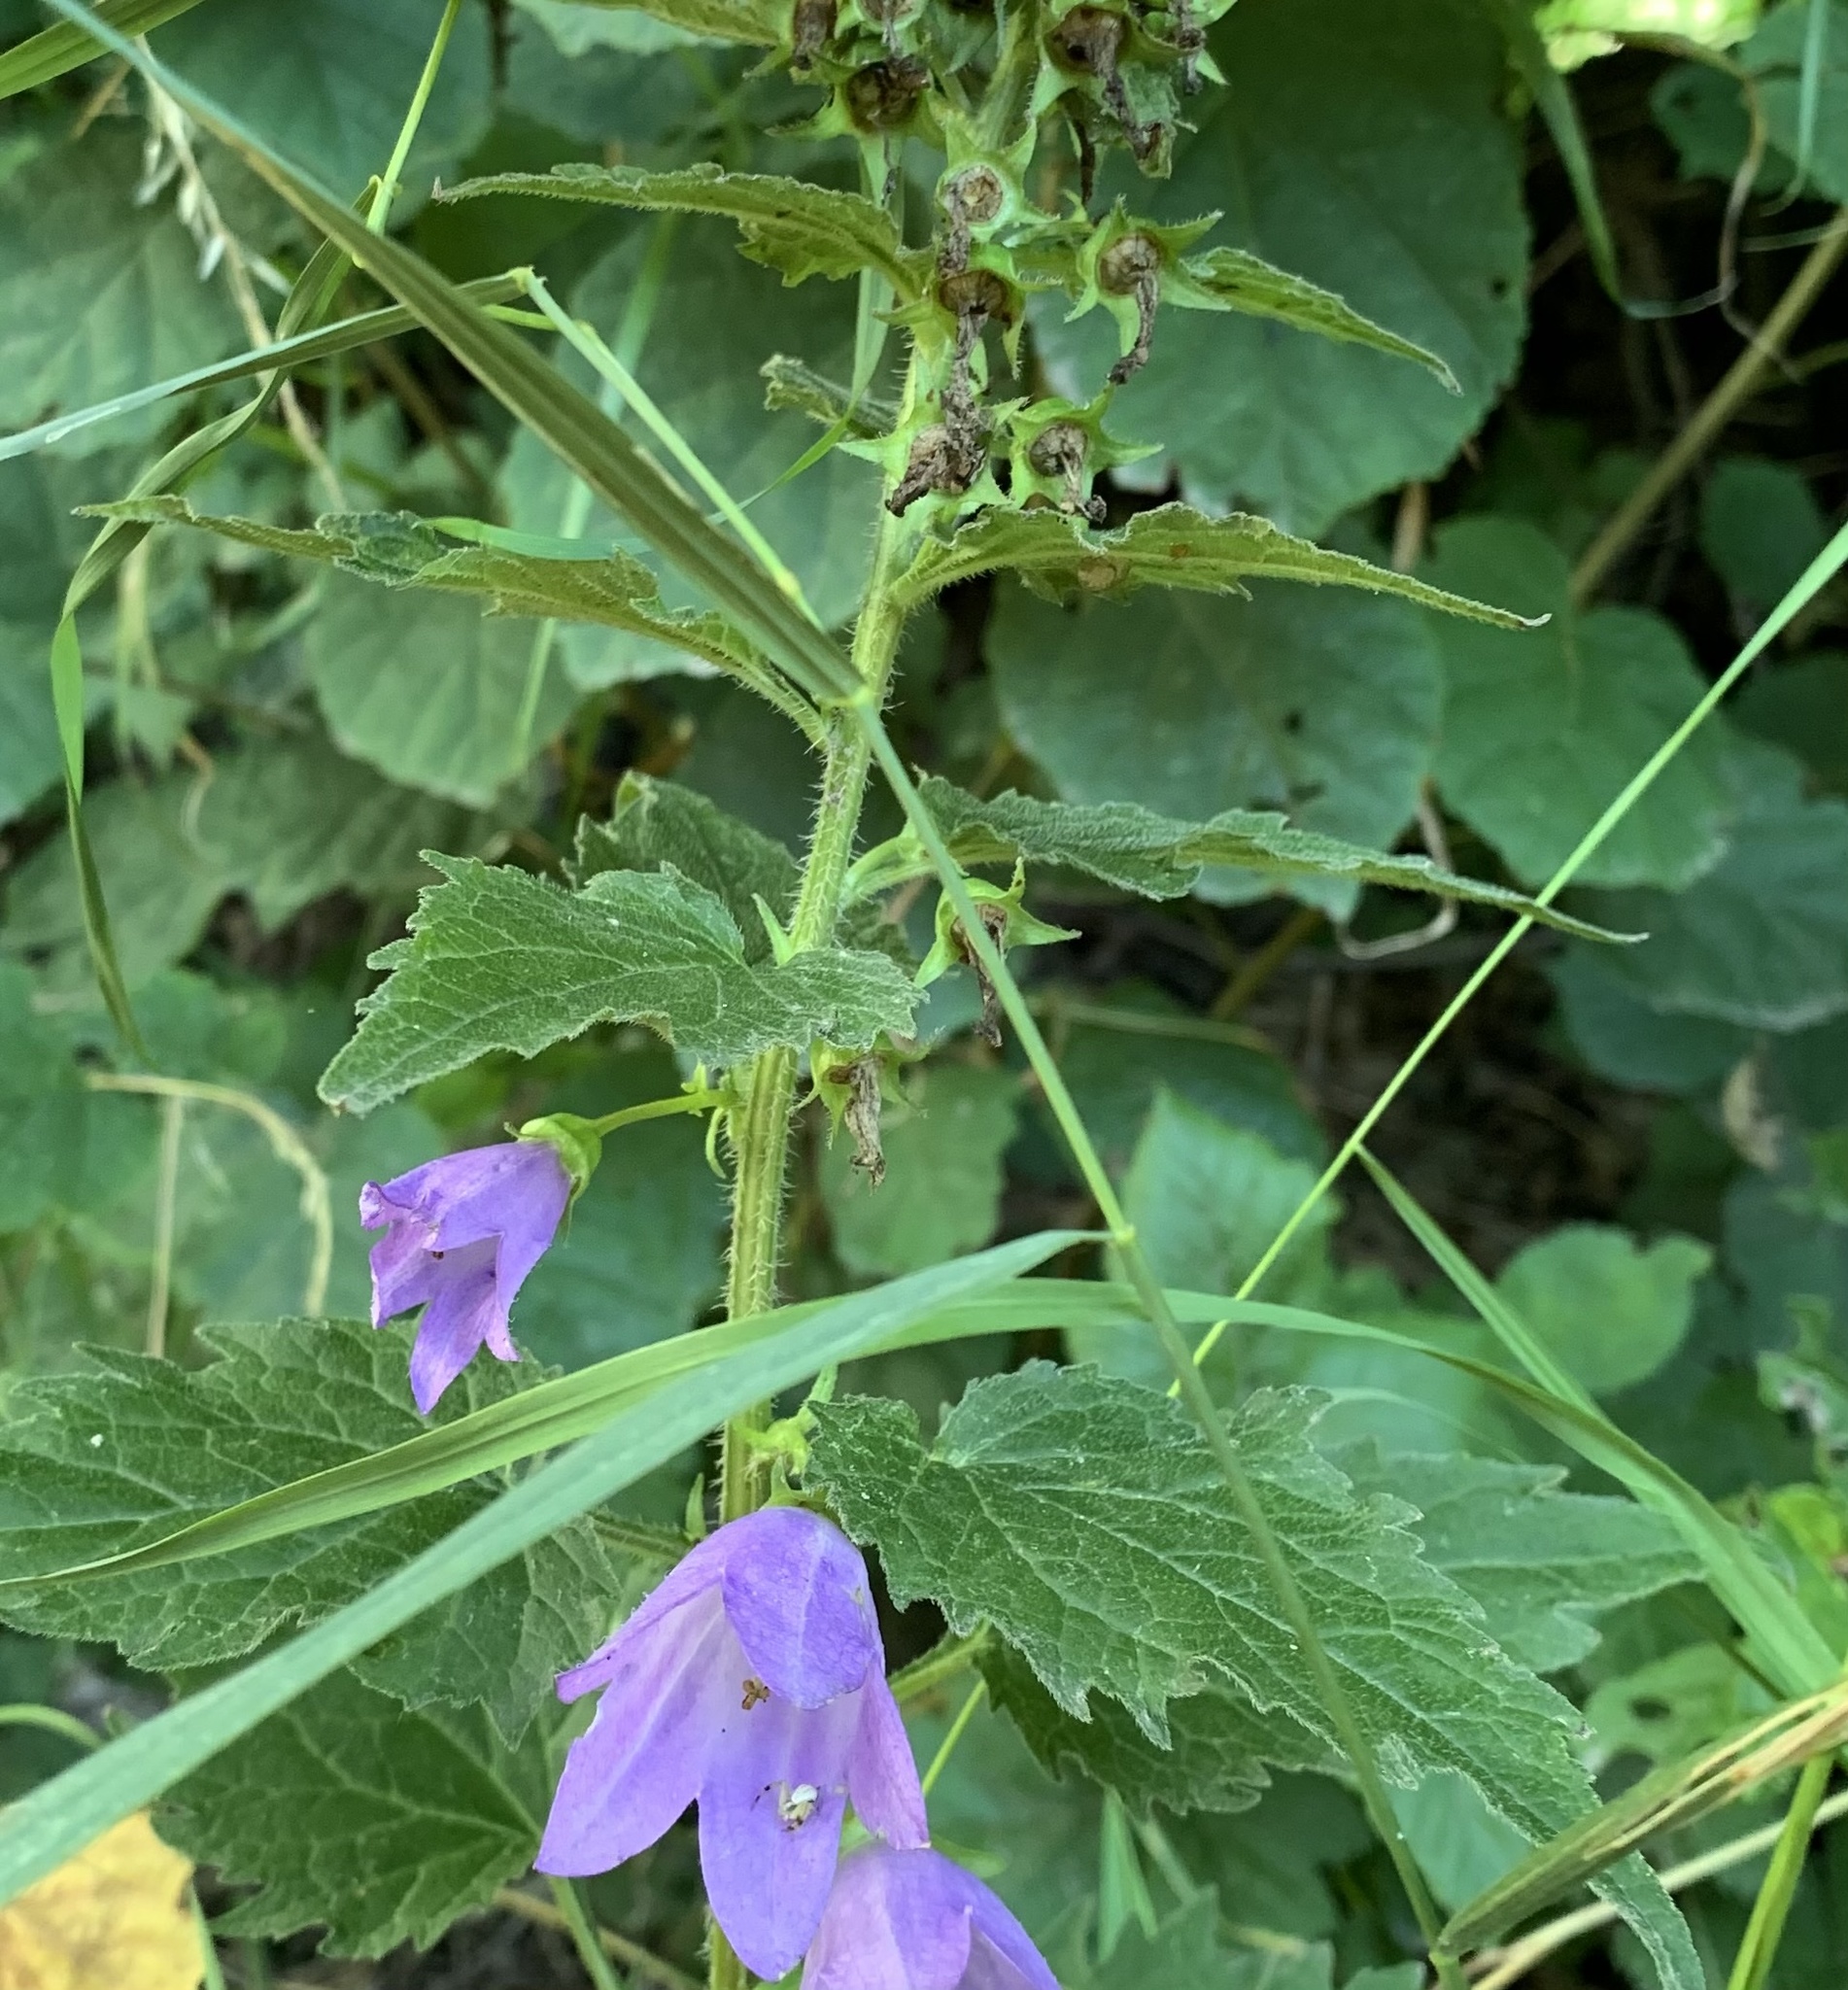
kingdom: Plantae
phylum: Tracheophyta
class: Magnoliopsida
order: Asterales
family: Campanulaceae
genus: Campanula
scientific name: Campanula trachelium
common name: Nettle-leaved bellflower
